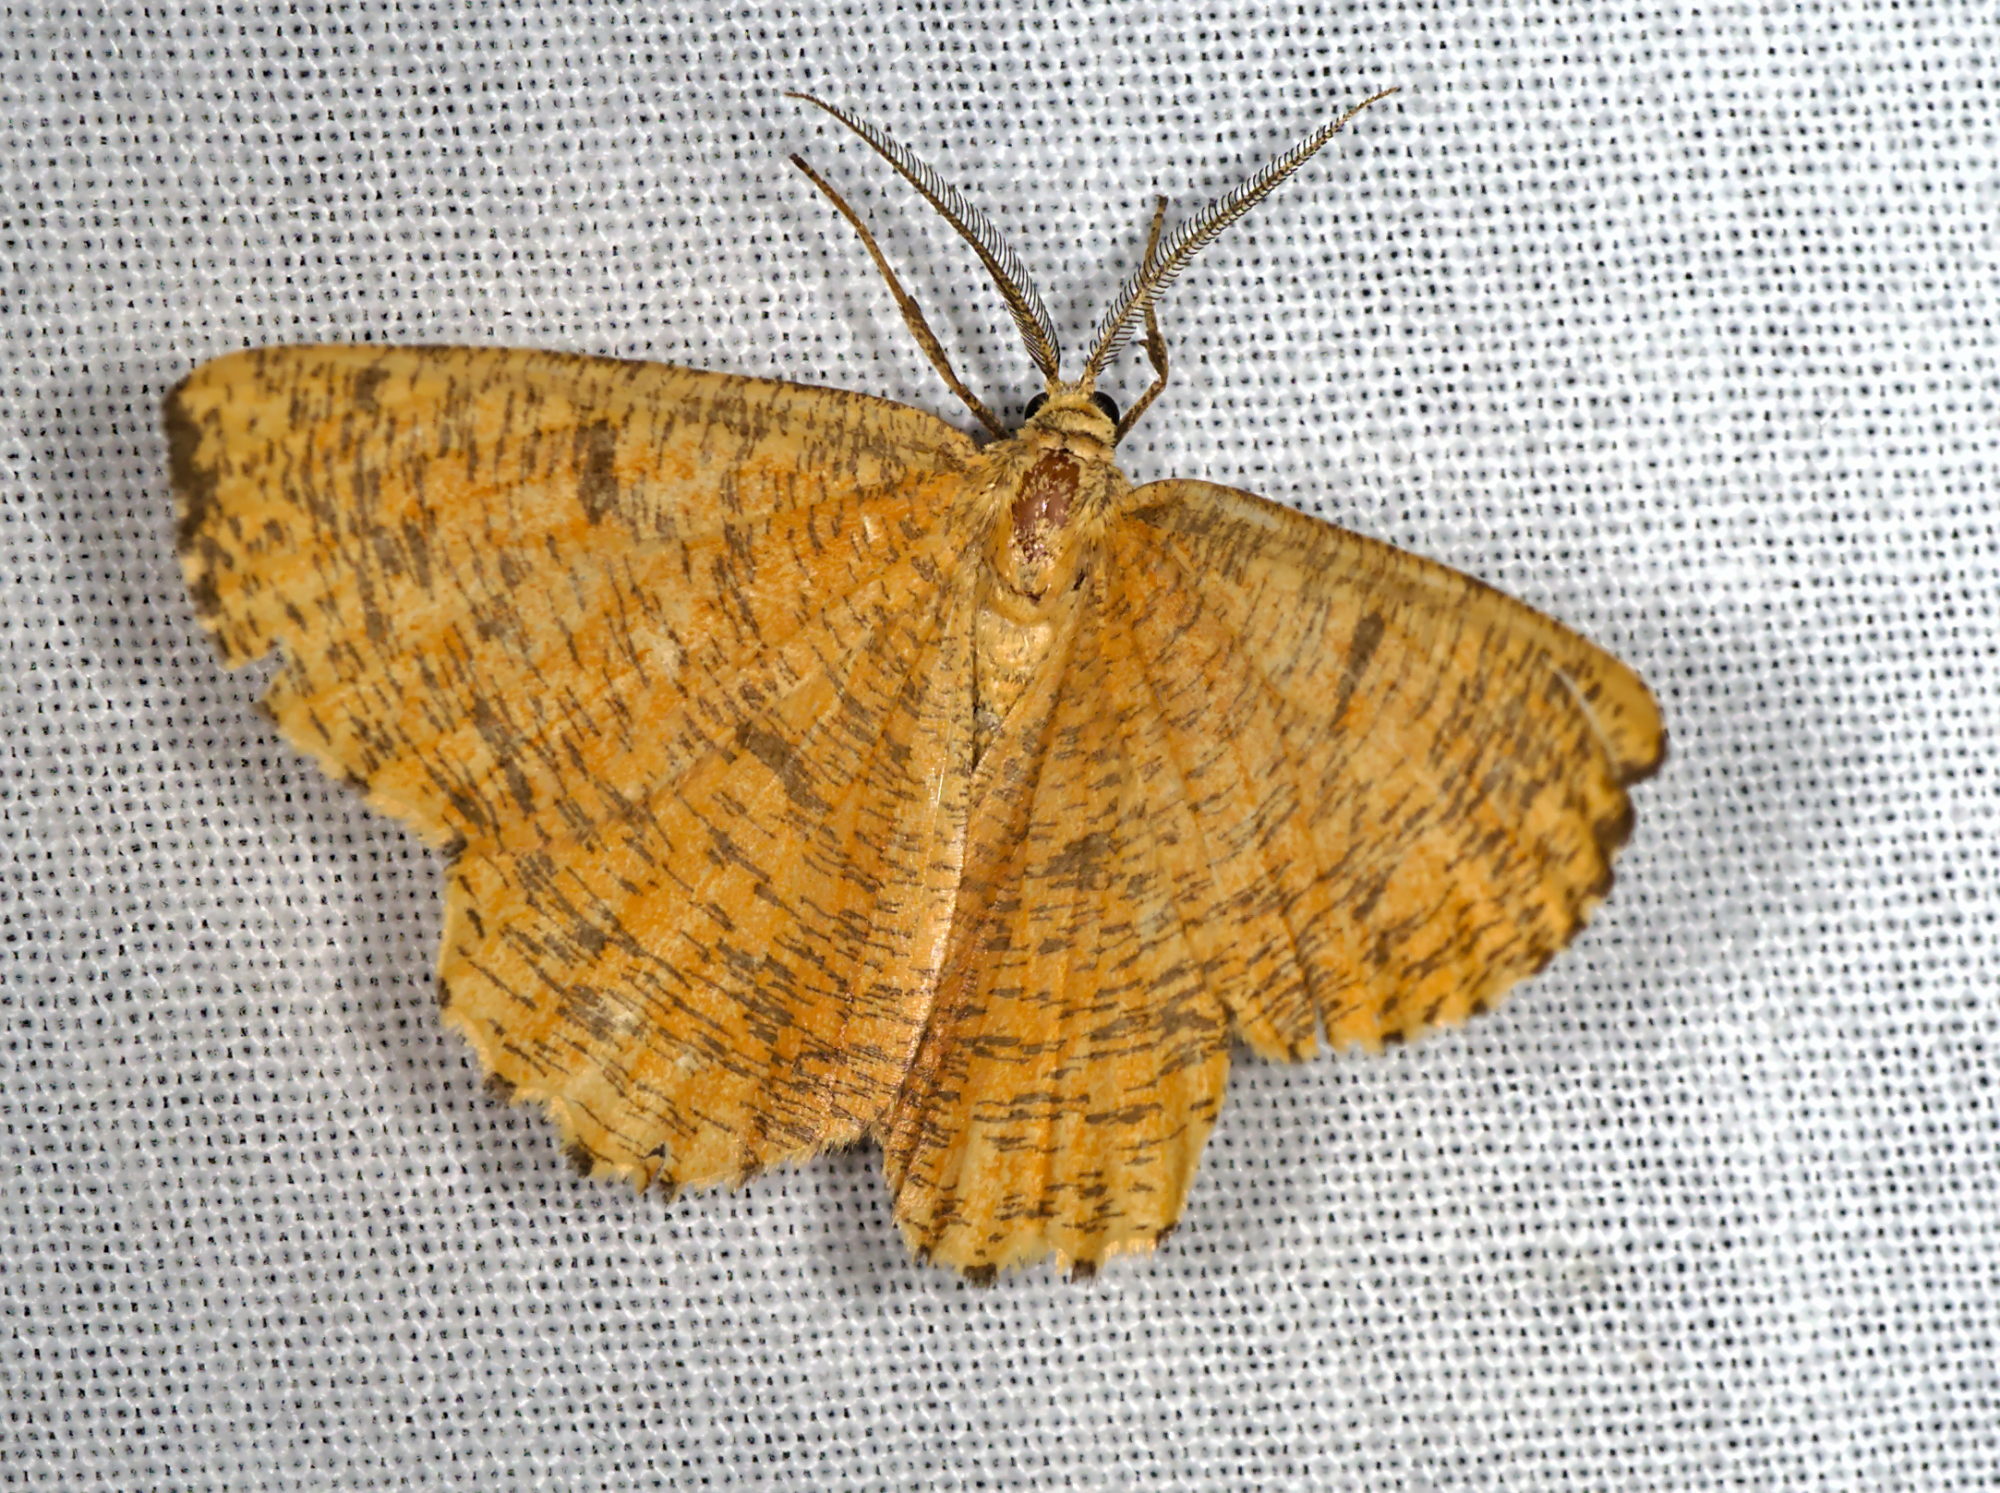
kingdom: Animalia
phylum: Arthropoda
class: Insecta
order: Lepidoptera
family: Geometridae
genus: Angerona
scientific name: Angerona prunaria
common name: Orange moth
